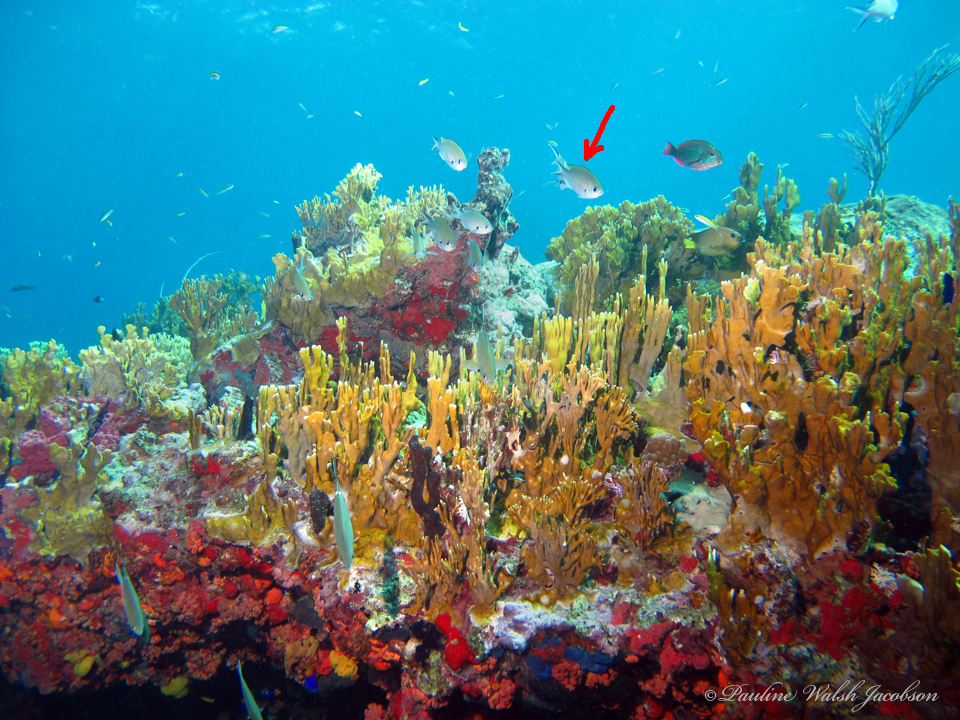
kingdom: Animalia
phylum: Chordata
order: Perciformes
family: Pomacentridae
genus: Chromis
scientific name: Chromis multilineata
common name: Brown chromis
